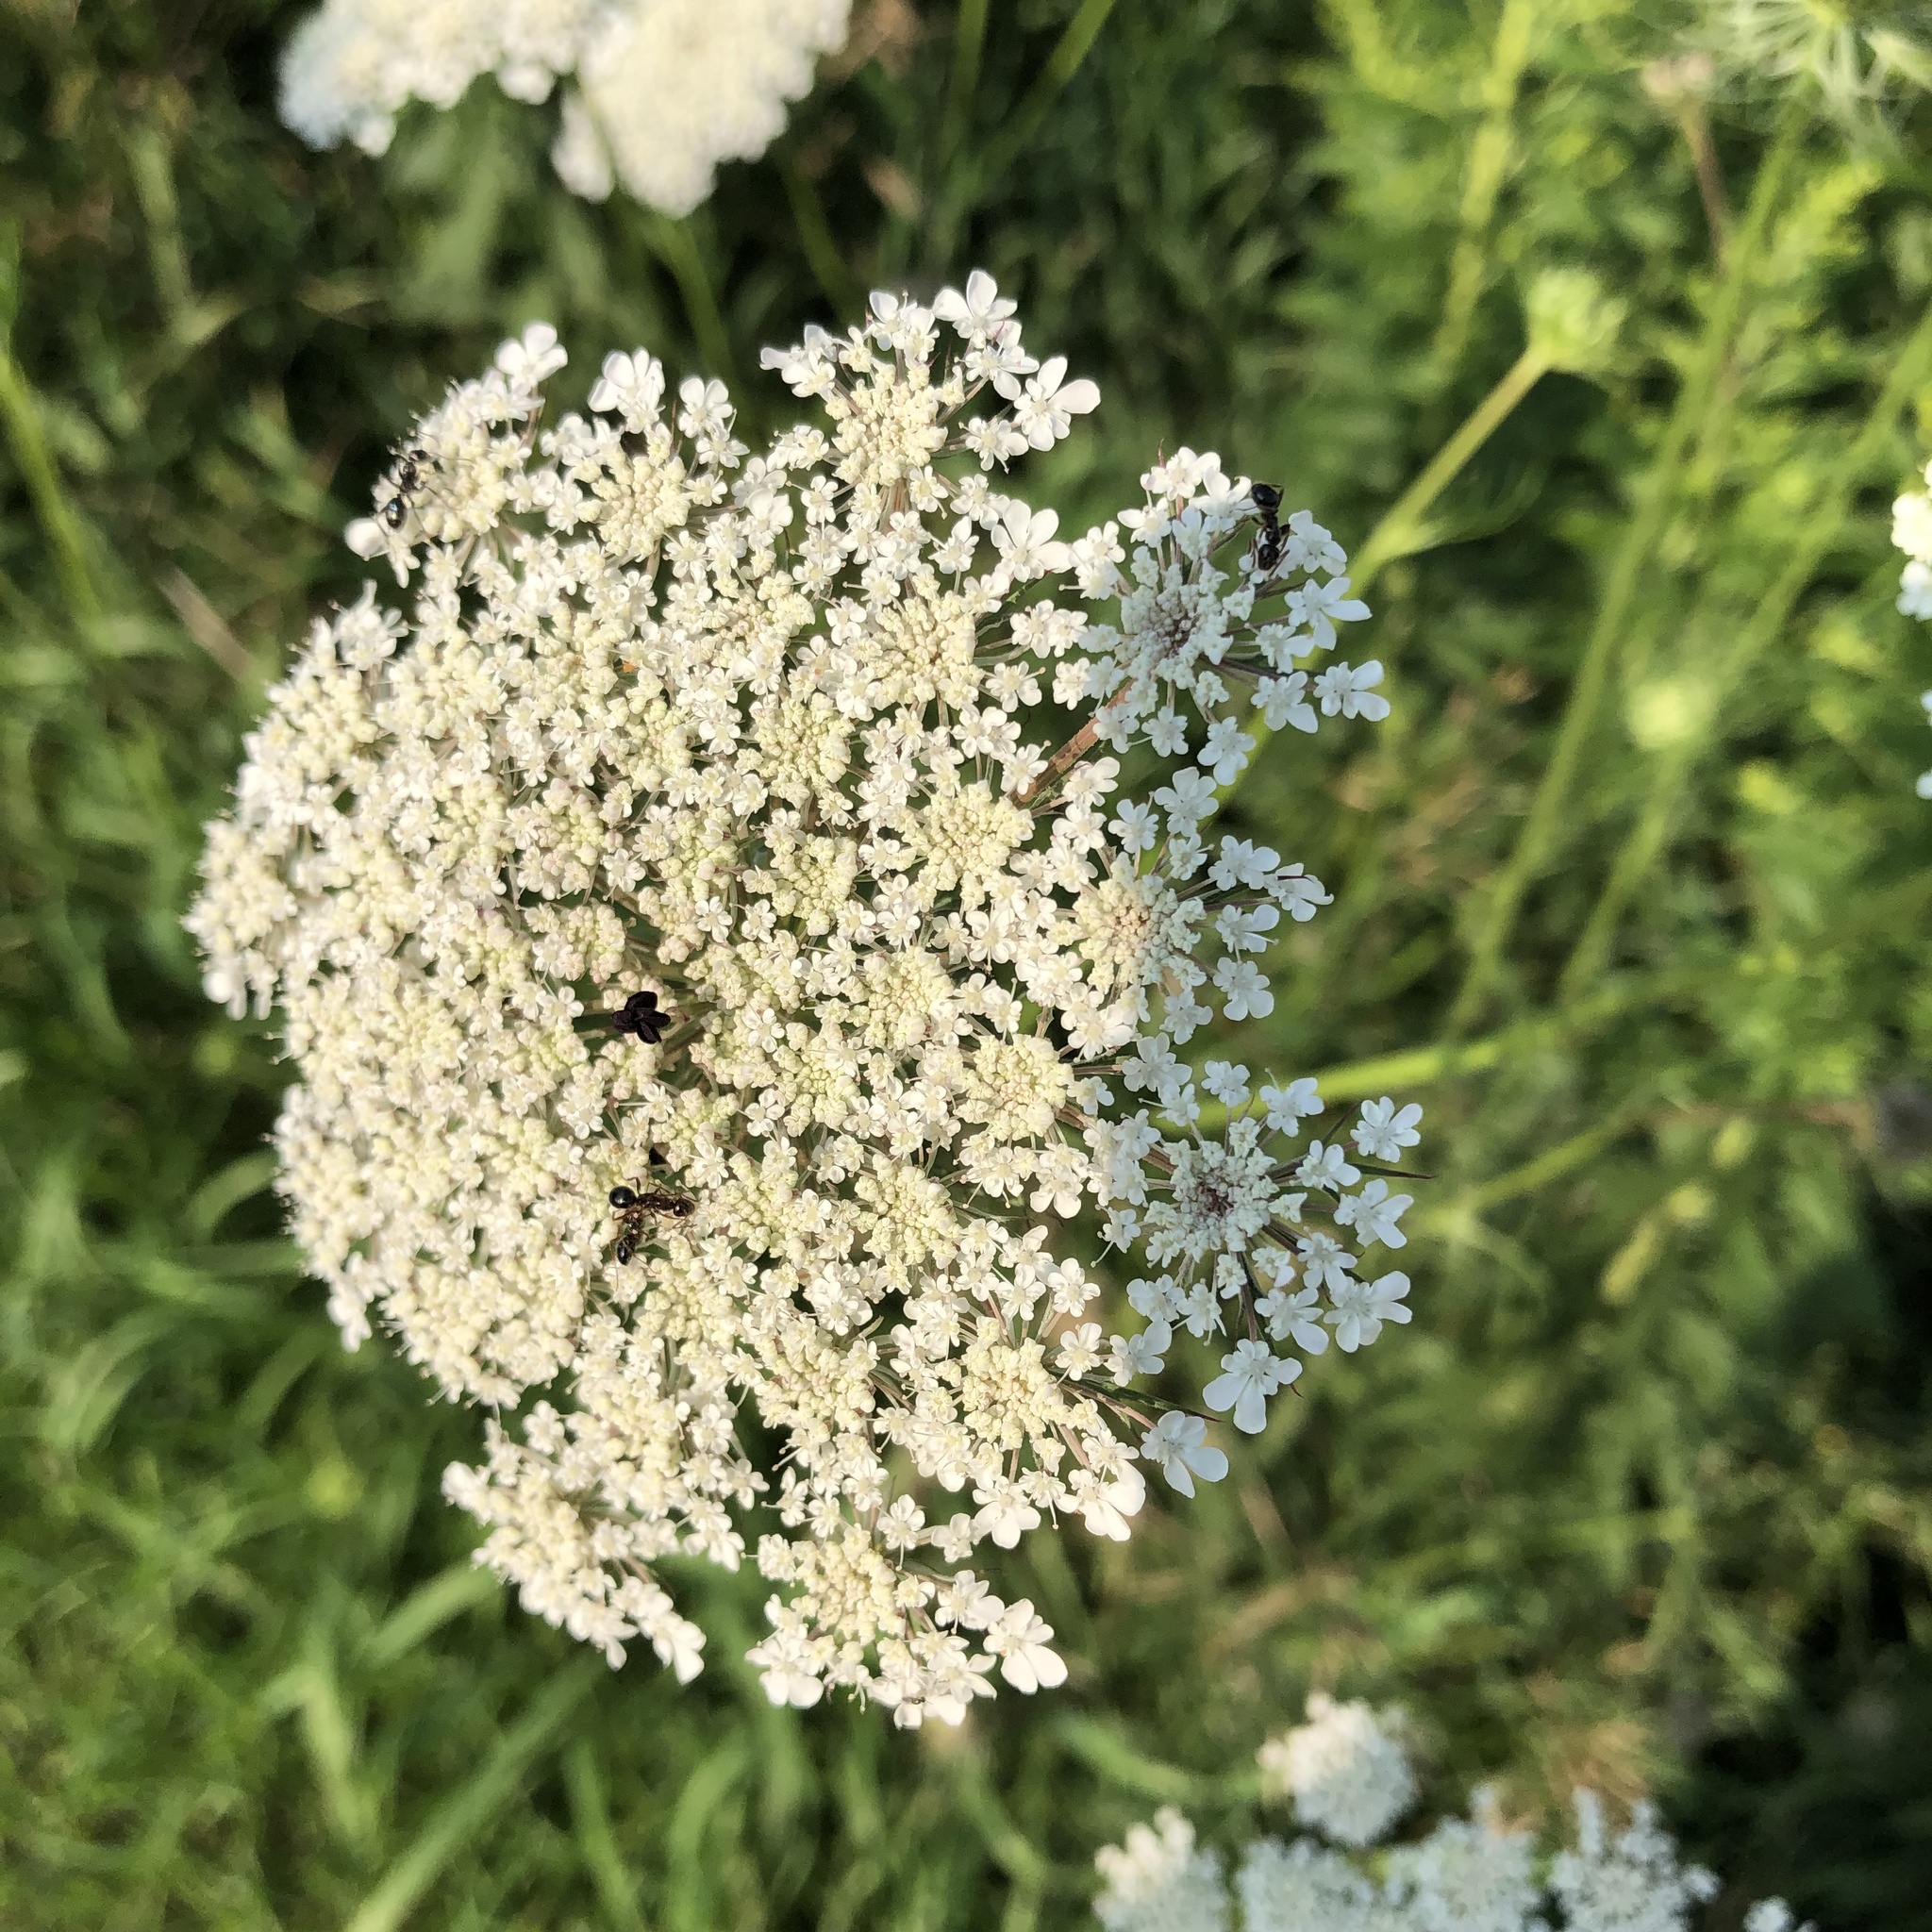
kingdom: Plantae
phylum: Tracheophyta
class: Magnoliopsida
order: Apiales
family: Apiaceae
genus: Daucus
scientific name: Daucus carota
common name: Wild carrot
